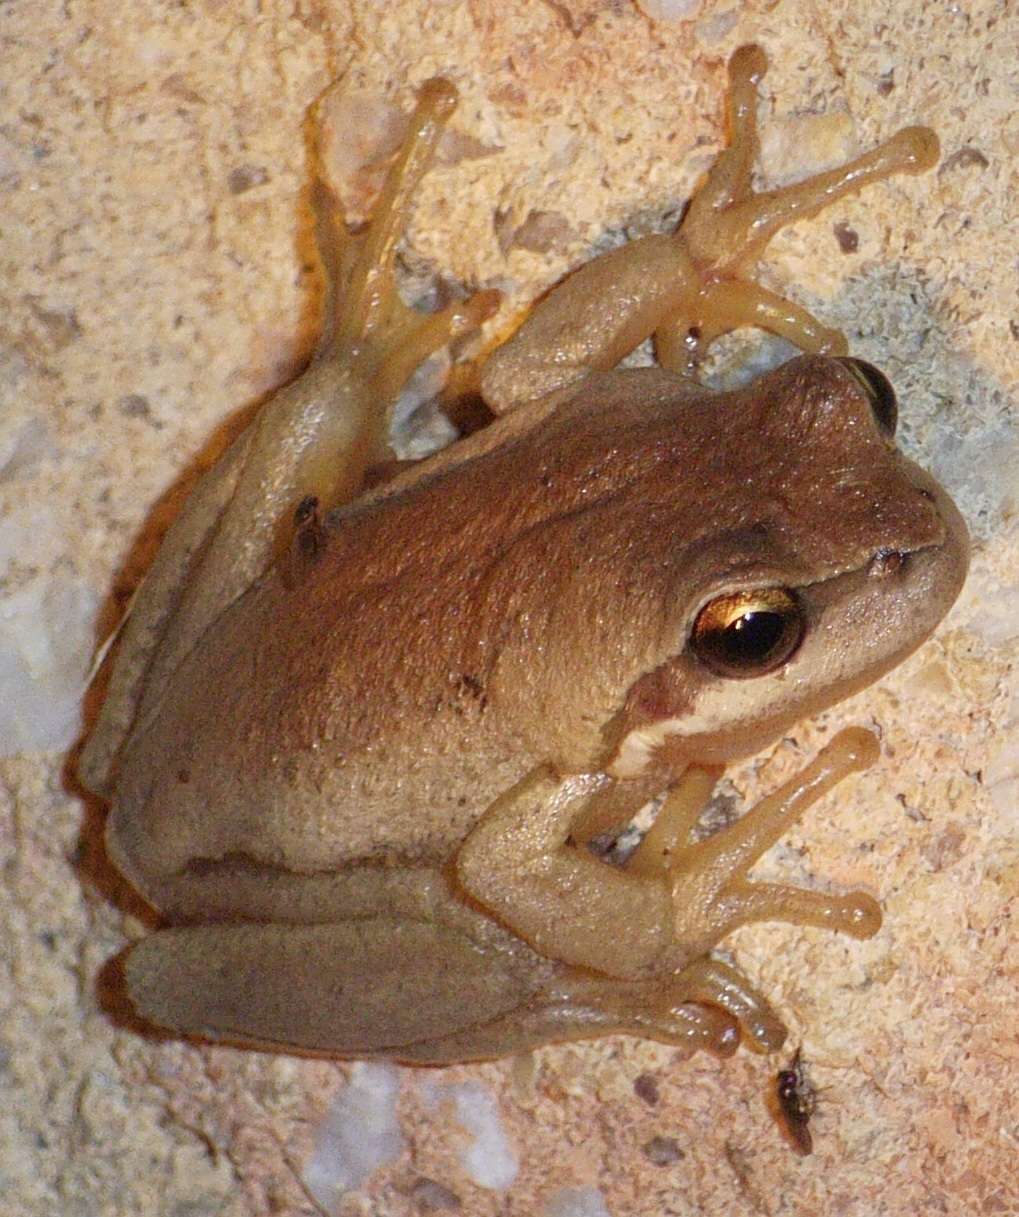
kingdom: Animalia
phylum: Chordata
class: Amphibia
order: Anura
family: Pelodryadidae
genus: Litoria
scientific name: Litoria ewingii
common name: Southern brown tree frog
